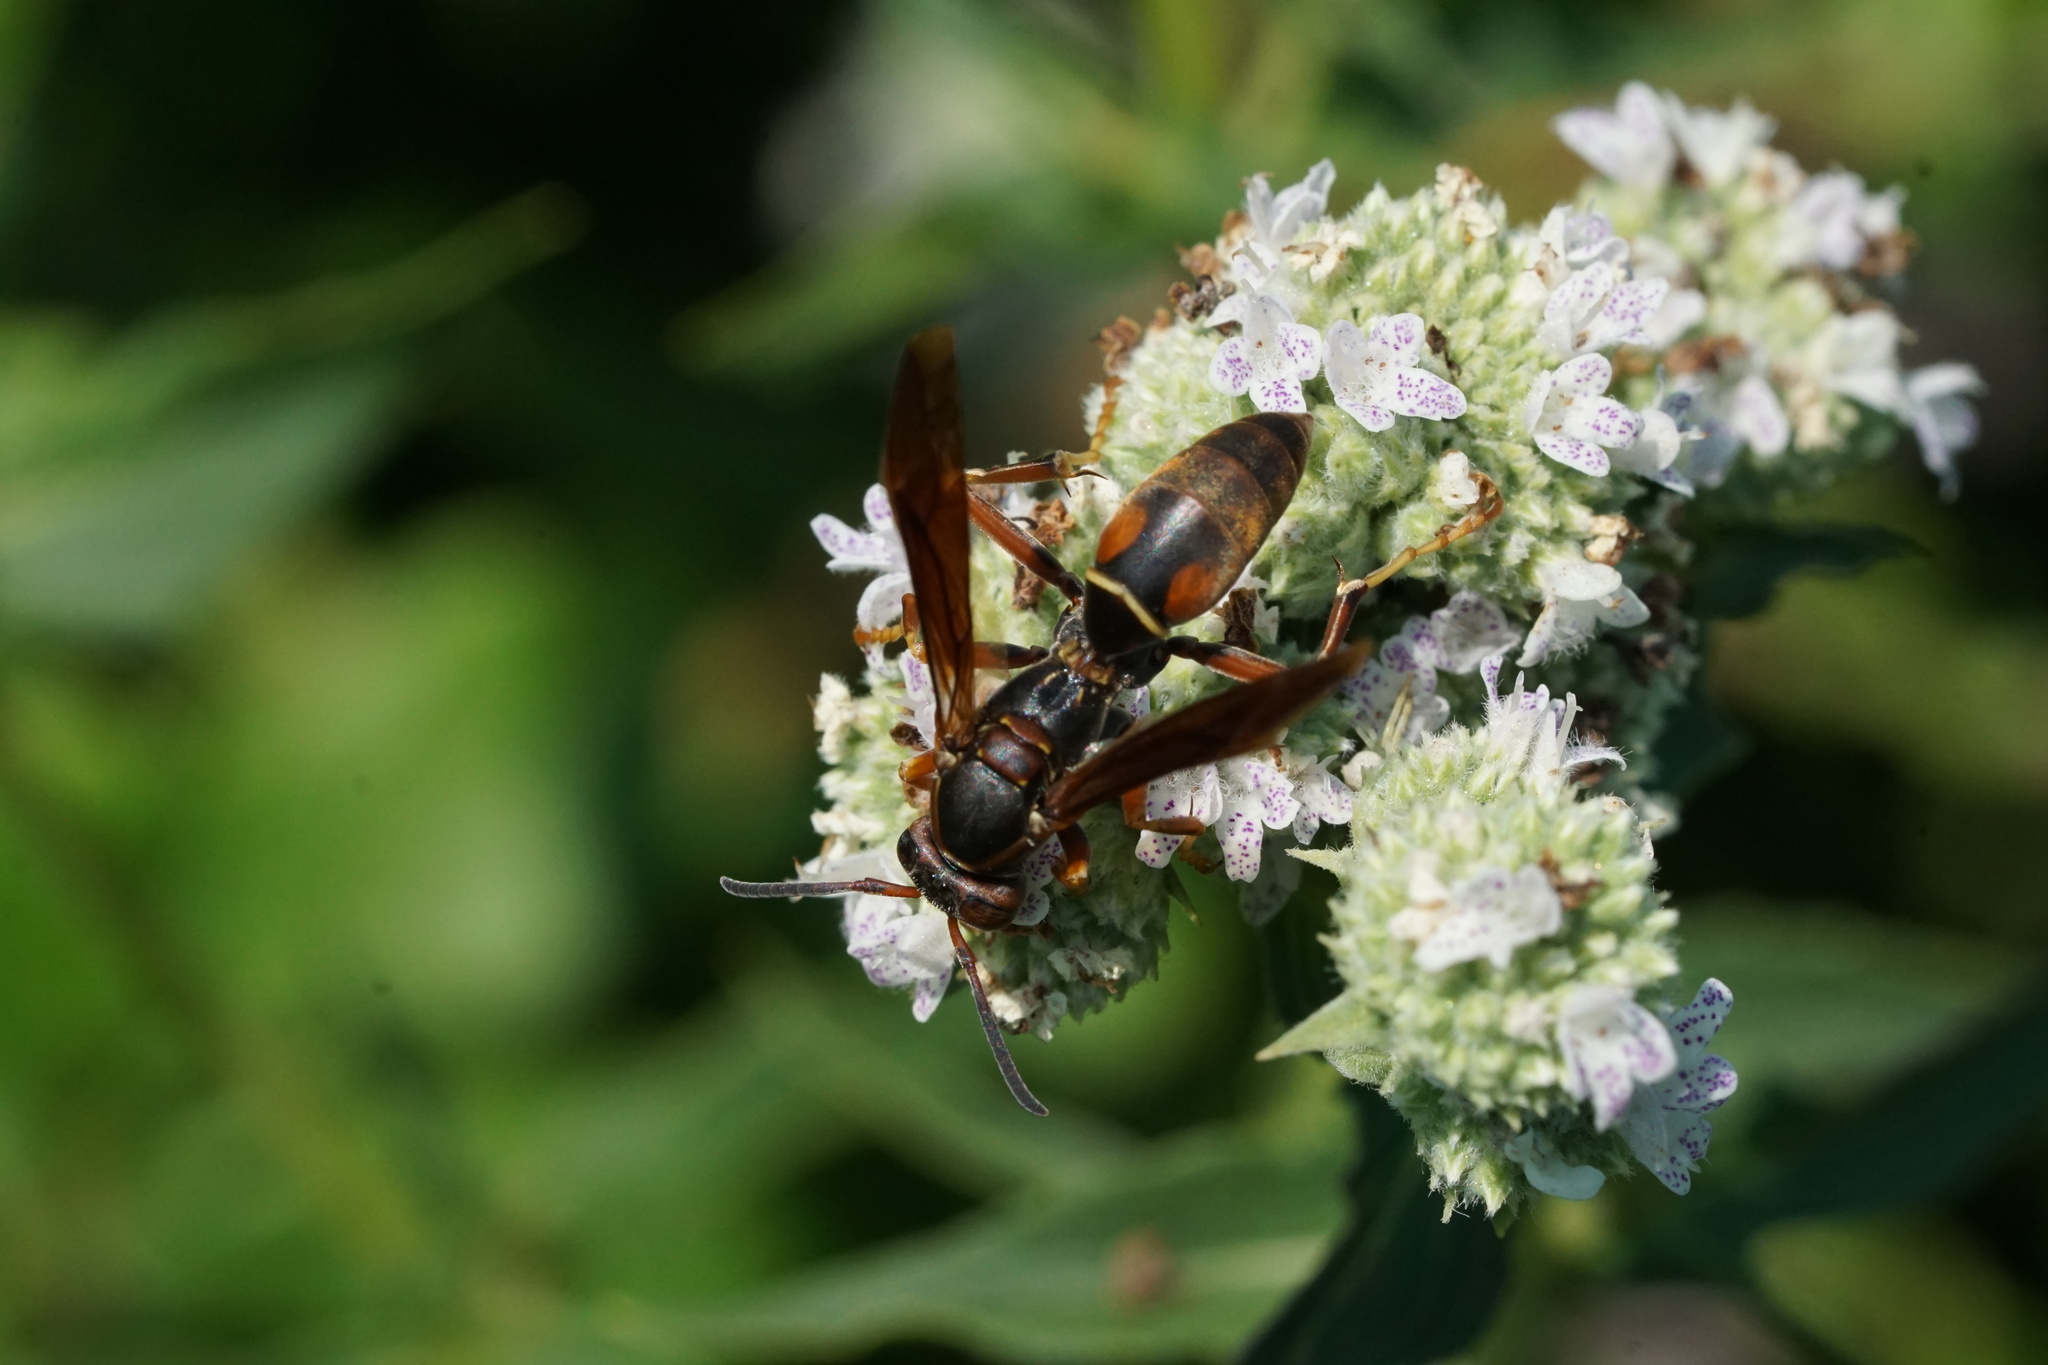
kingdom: Animalia
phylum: Arthropoda
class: Insecta
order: Hymenoptera
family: Eumenidae
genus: Polistes
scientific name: Polistes fuscatus
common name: Dark paper wasp
